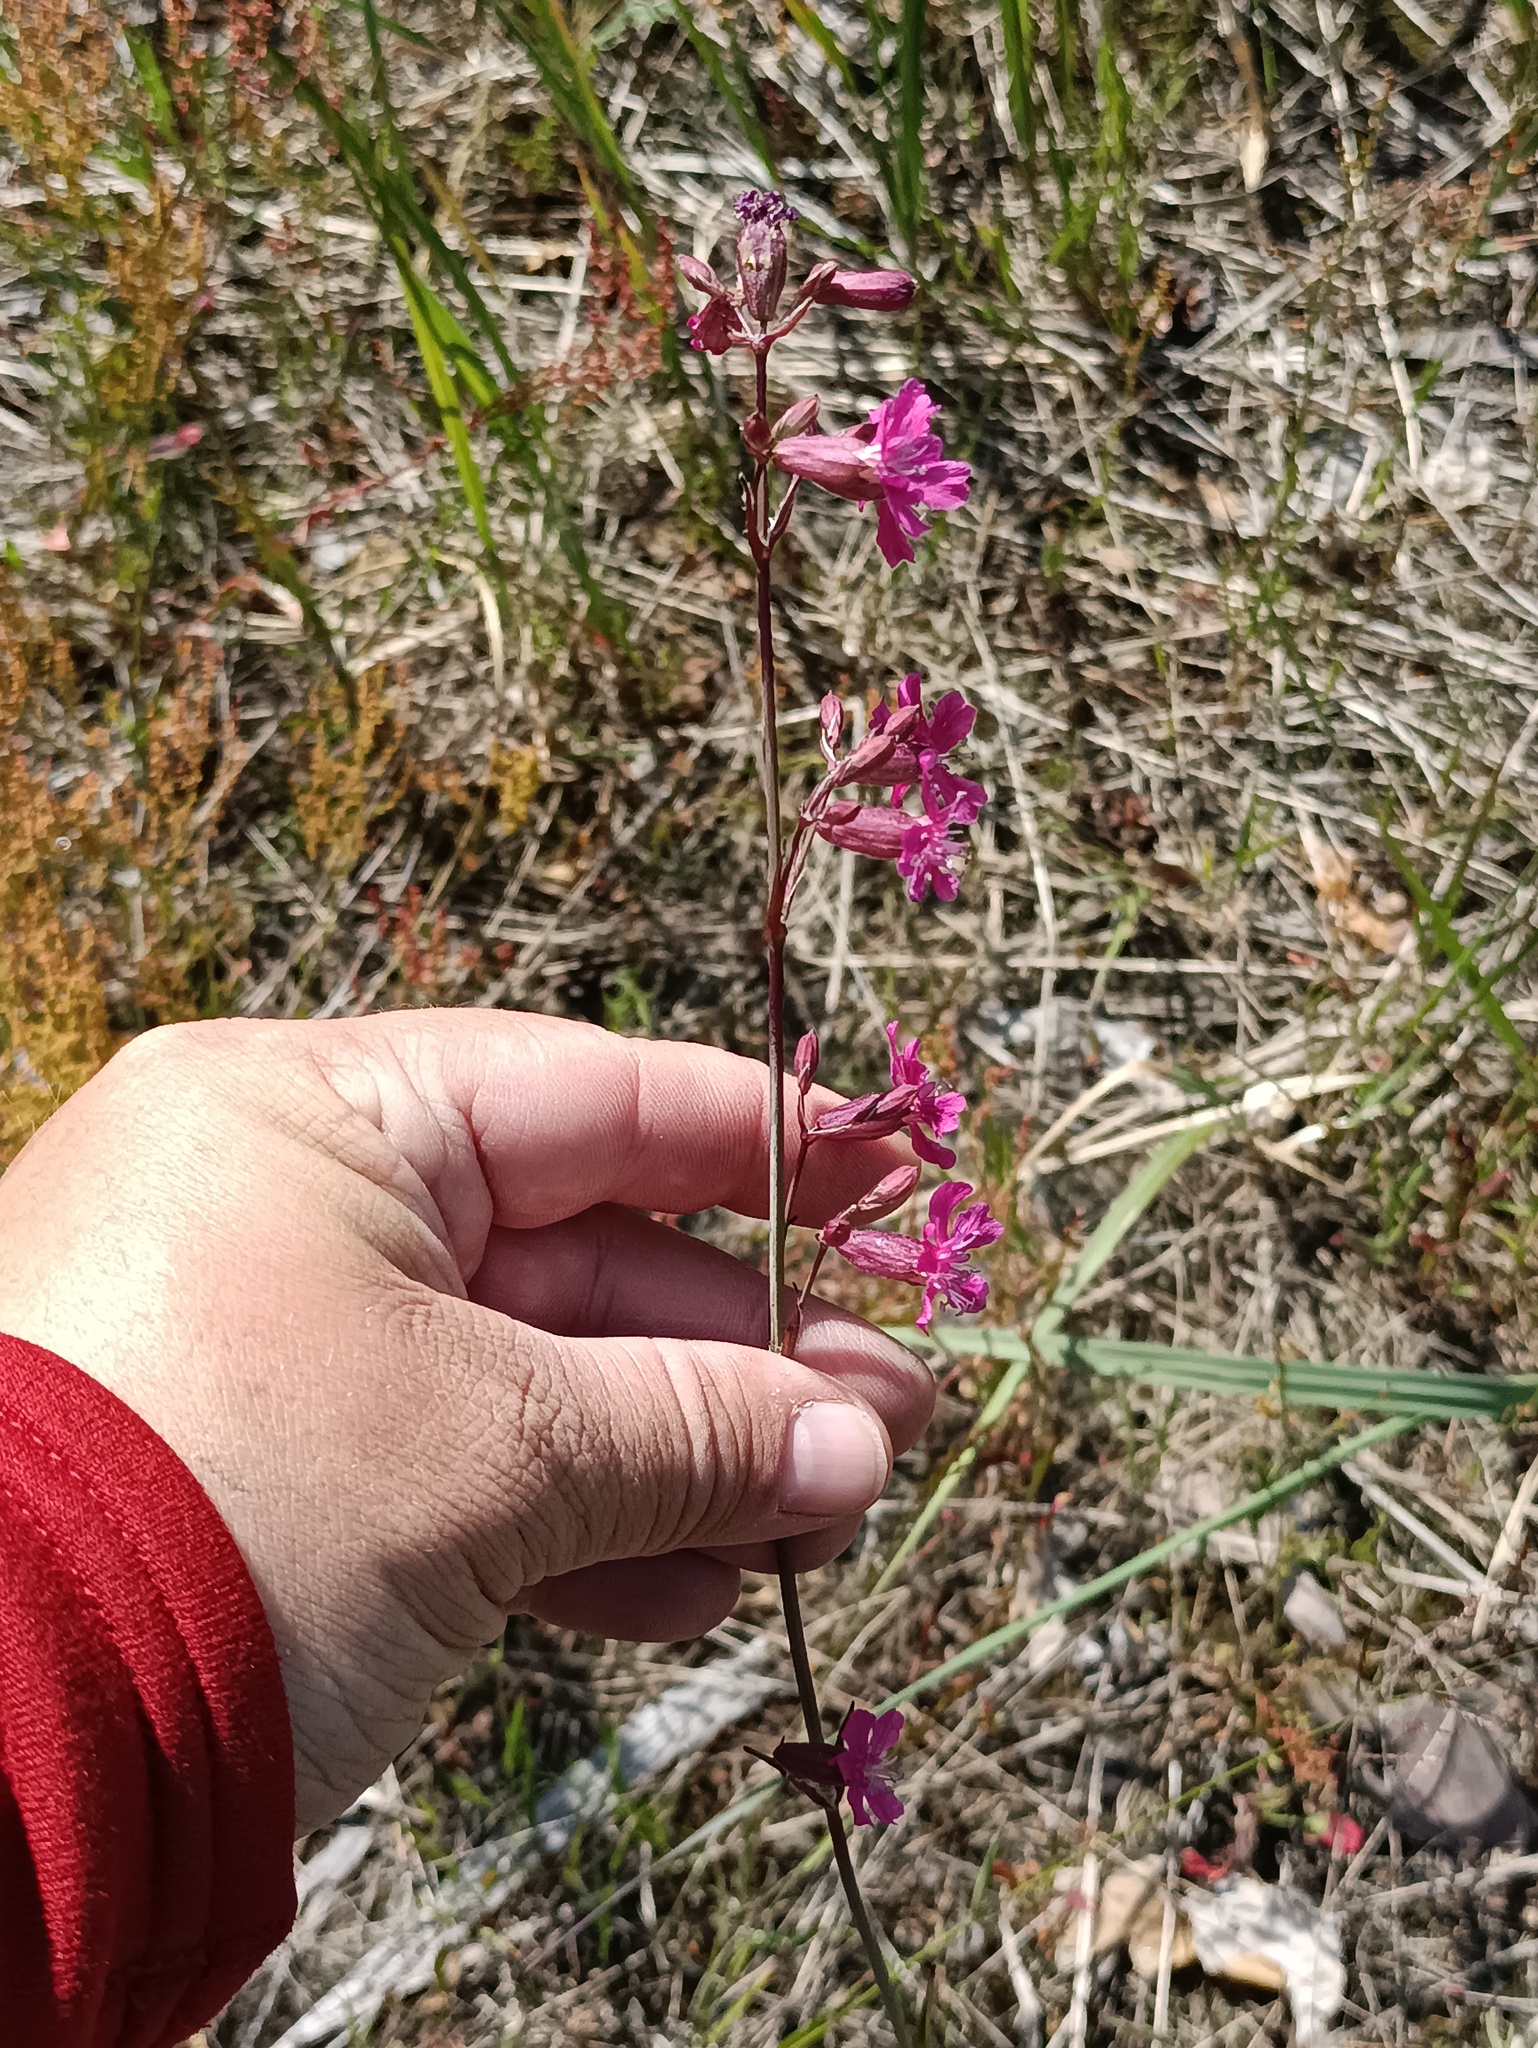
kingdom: Plantae
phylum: Tracheophyta
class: Magnoliopsida
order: Caryophyllales
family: Caryophyllaceae
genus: Viscaria
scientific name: Viscaria vulgaris
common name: Clammy campion
